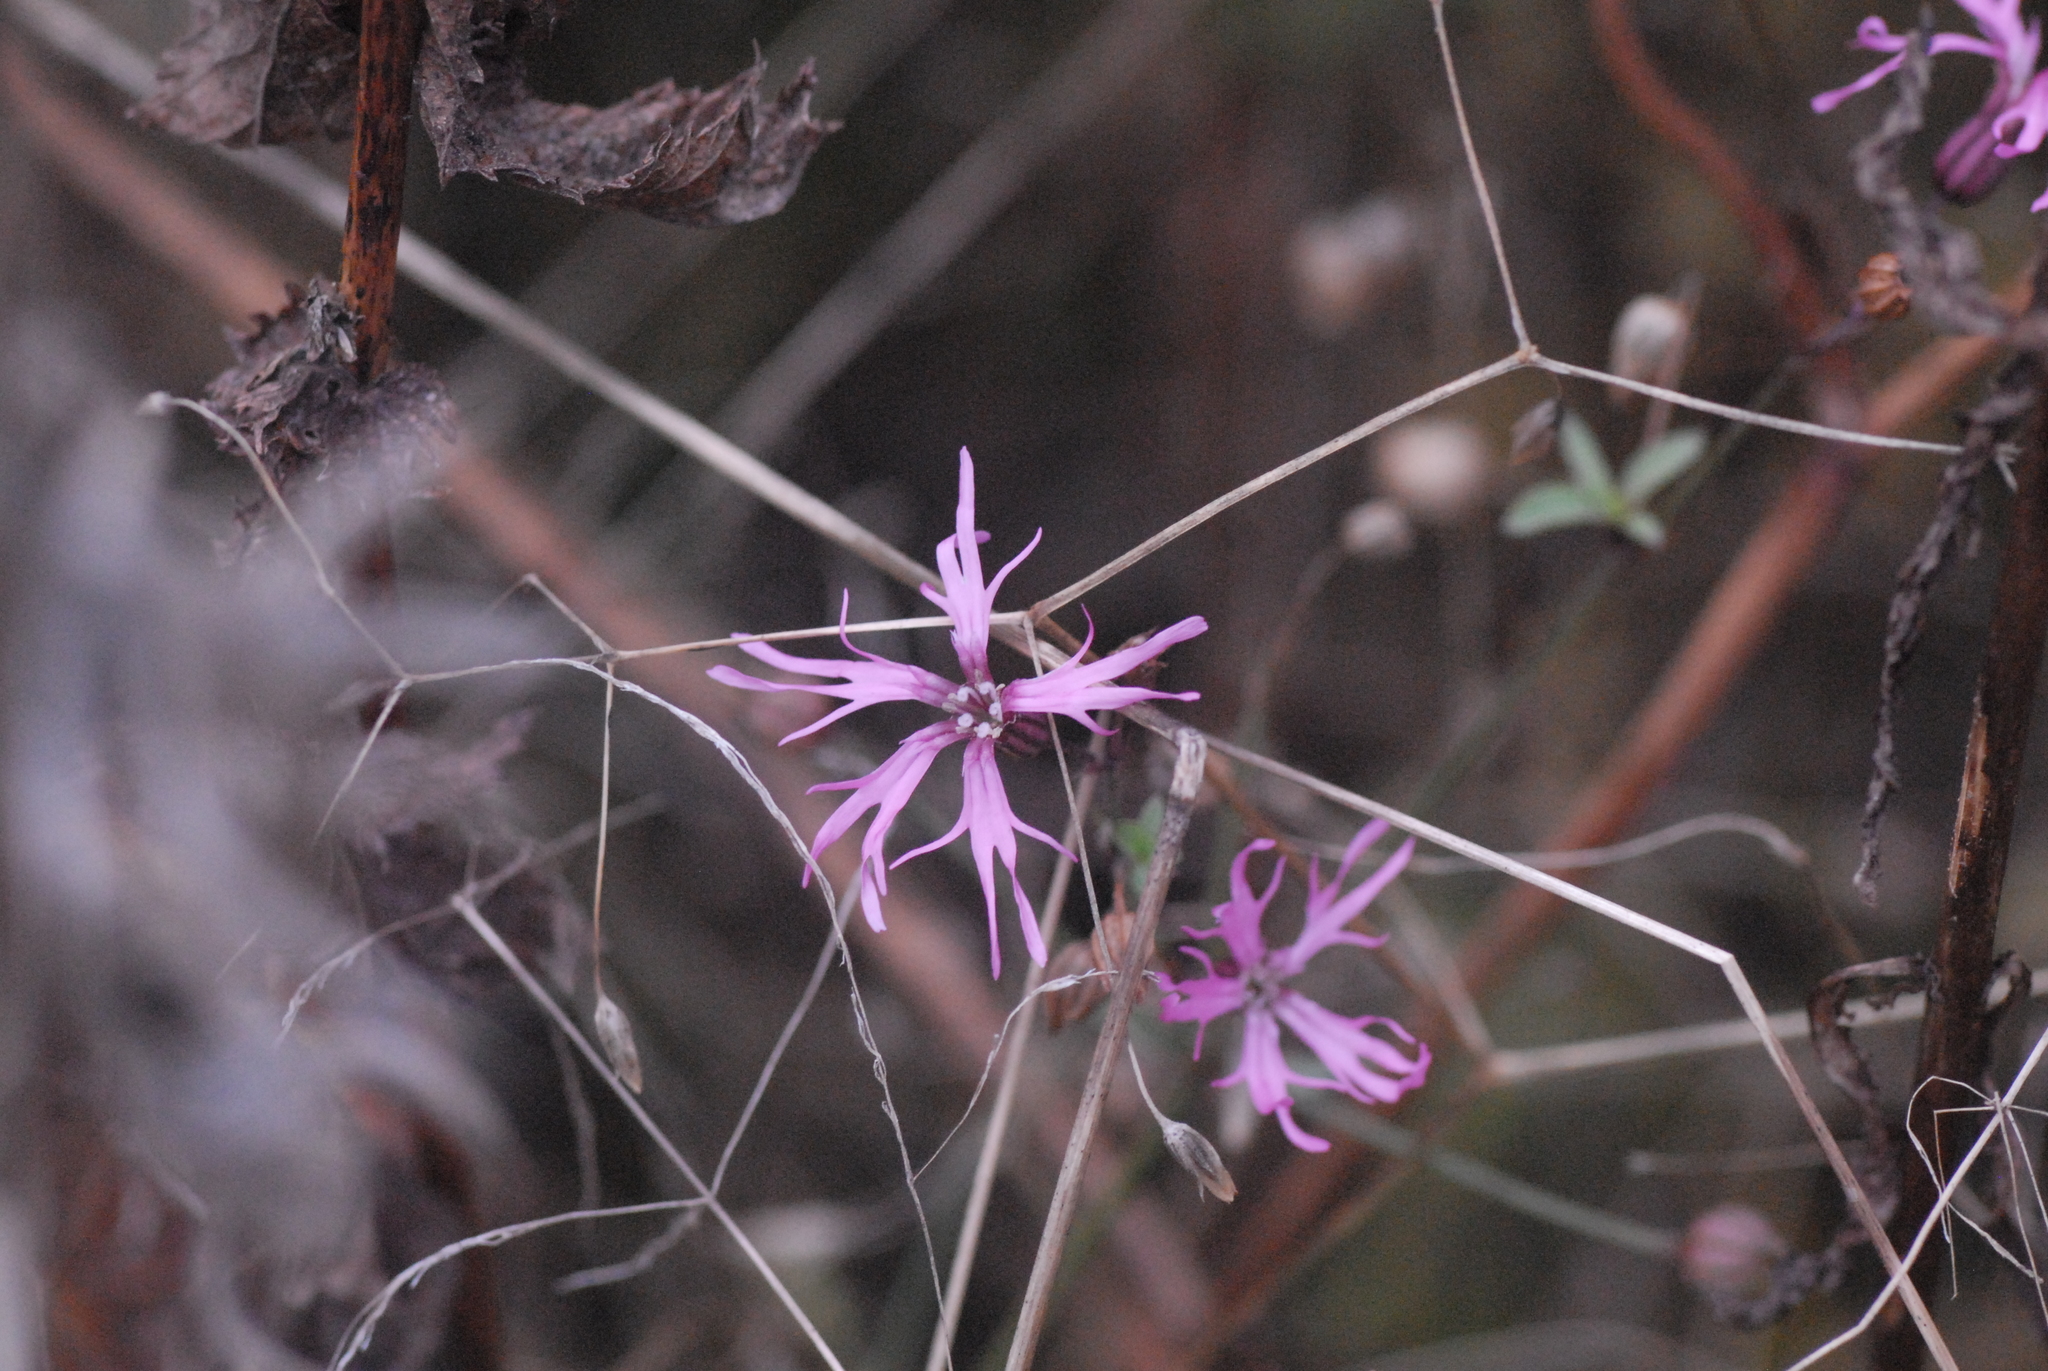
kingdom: Plantae
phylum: Tracheophyta
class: Magnoliopsida
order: Caryophyllales
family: Caryophyllaceae
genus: Silene
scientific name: Silene flos-cuculi
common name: Ragged-robin
